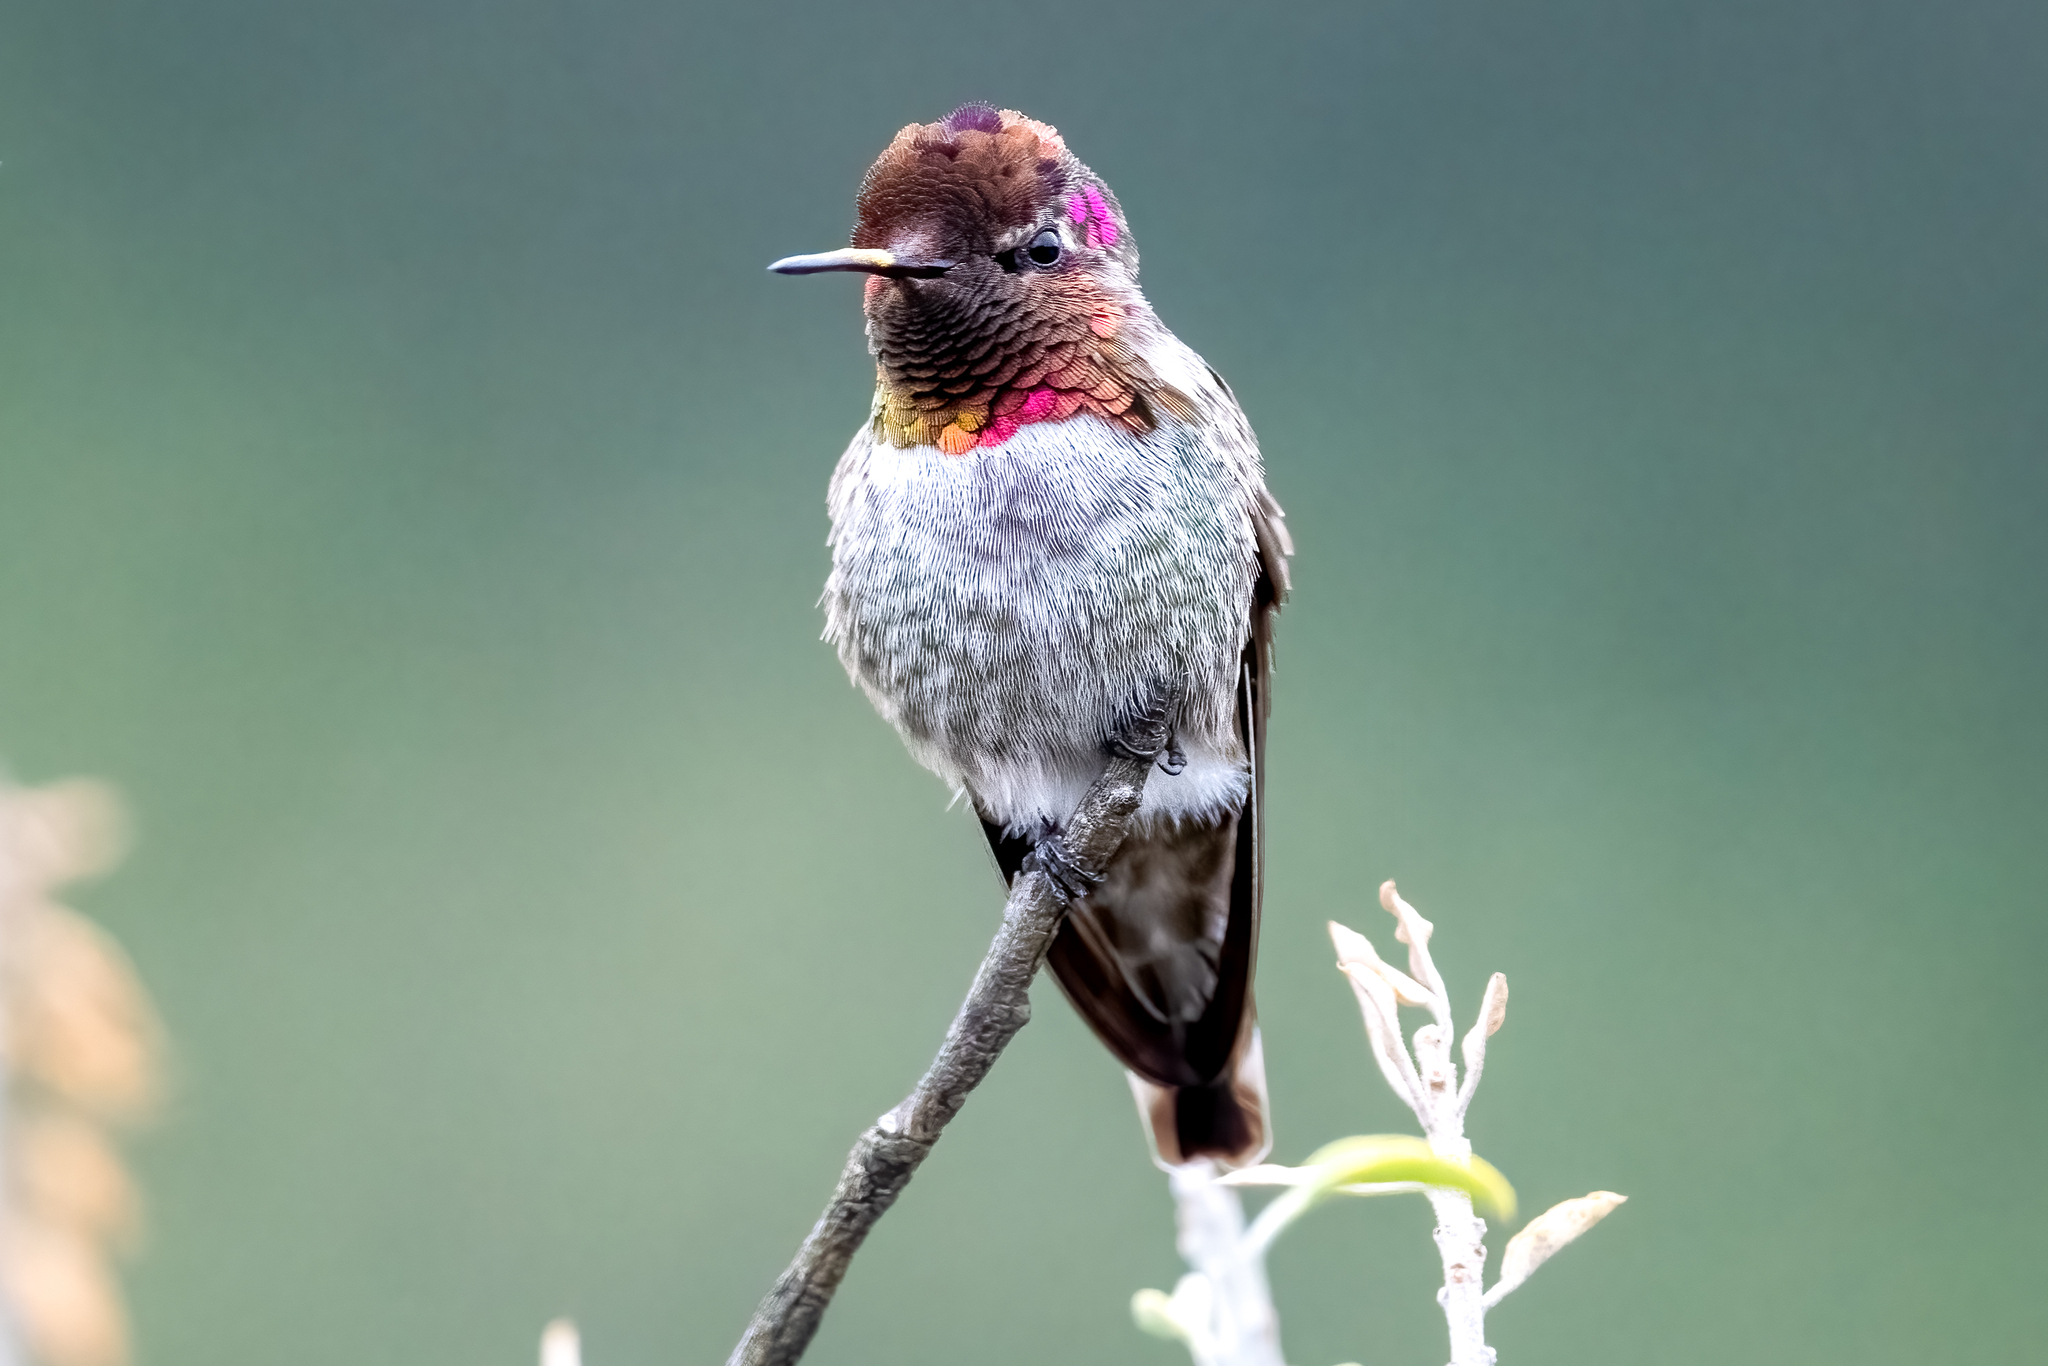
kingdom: Animalia
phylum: Chordata
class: Aves
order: Apodiformes
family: Trochilidae
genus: Calypte
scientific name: Calypte anna
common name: Anna's hummingbird
